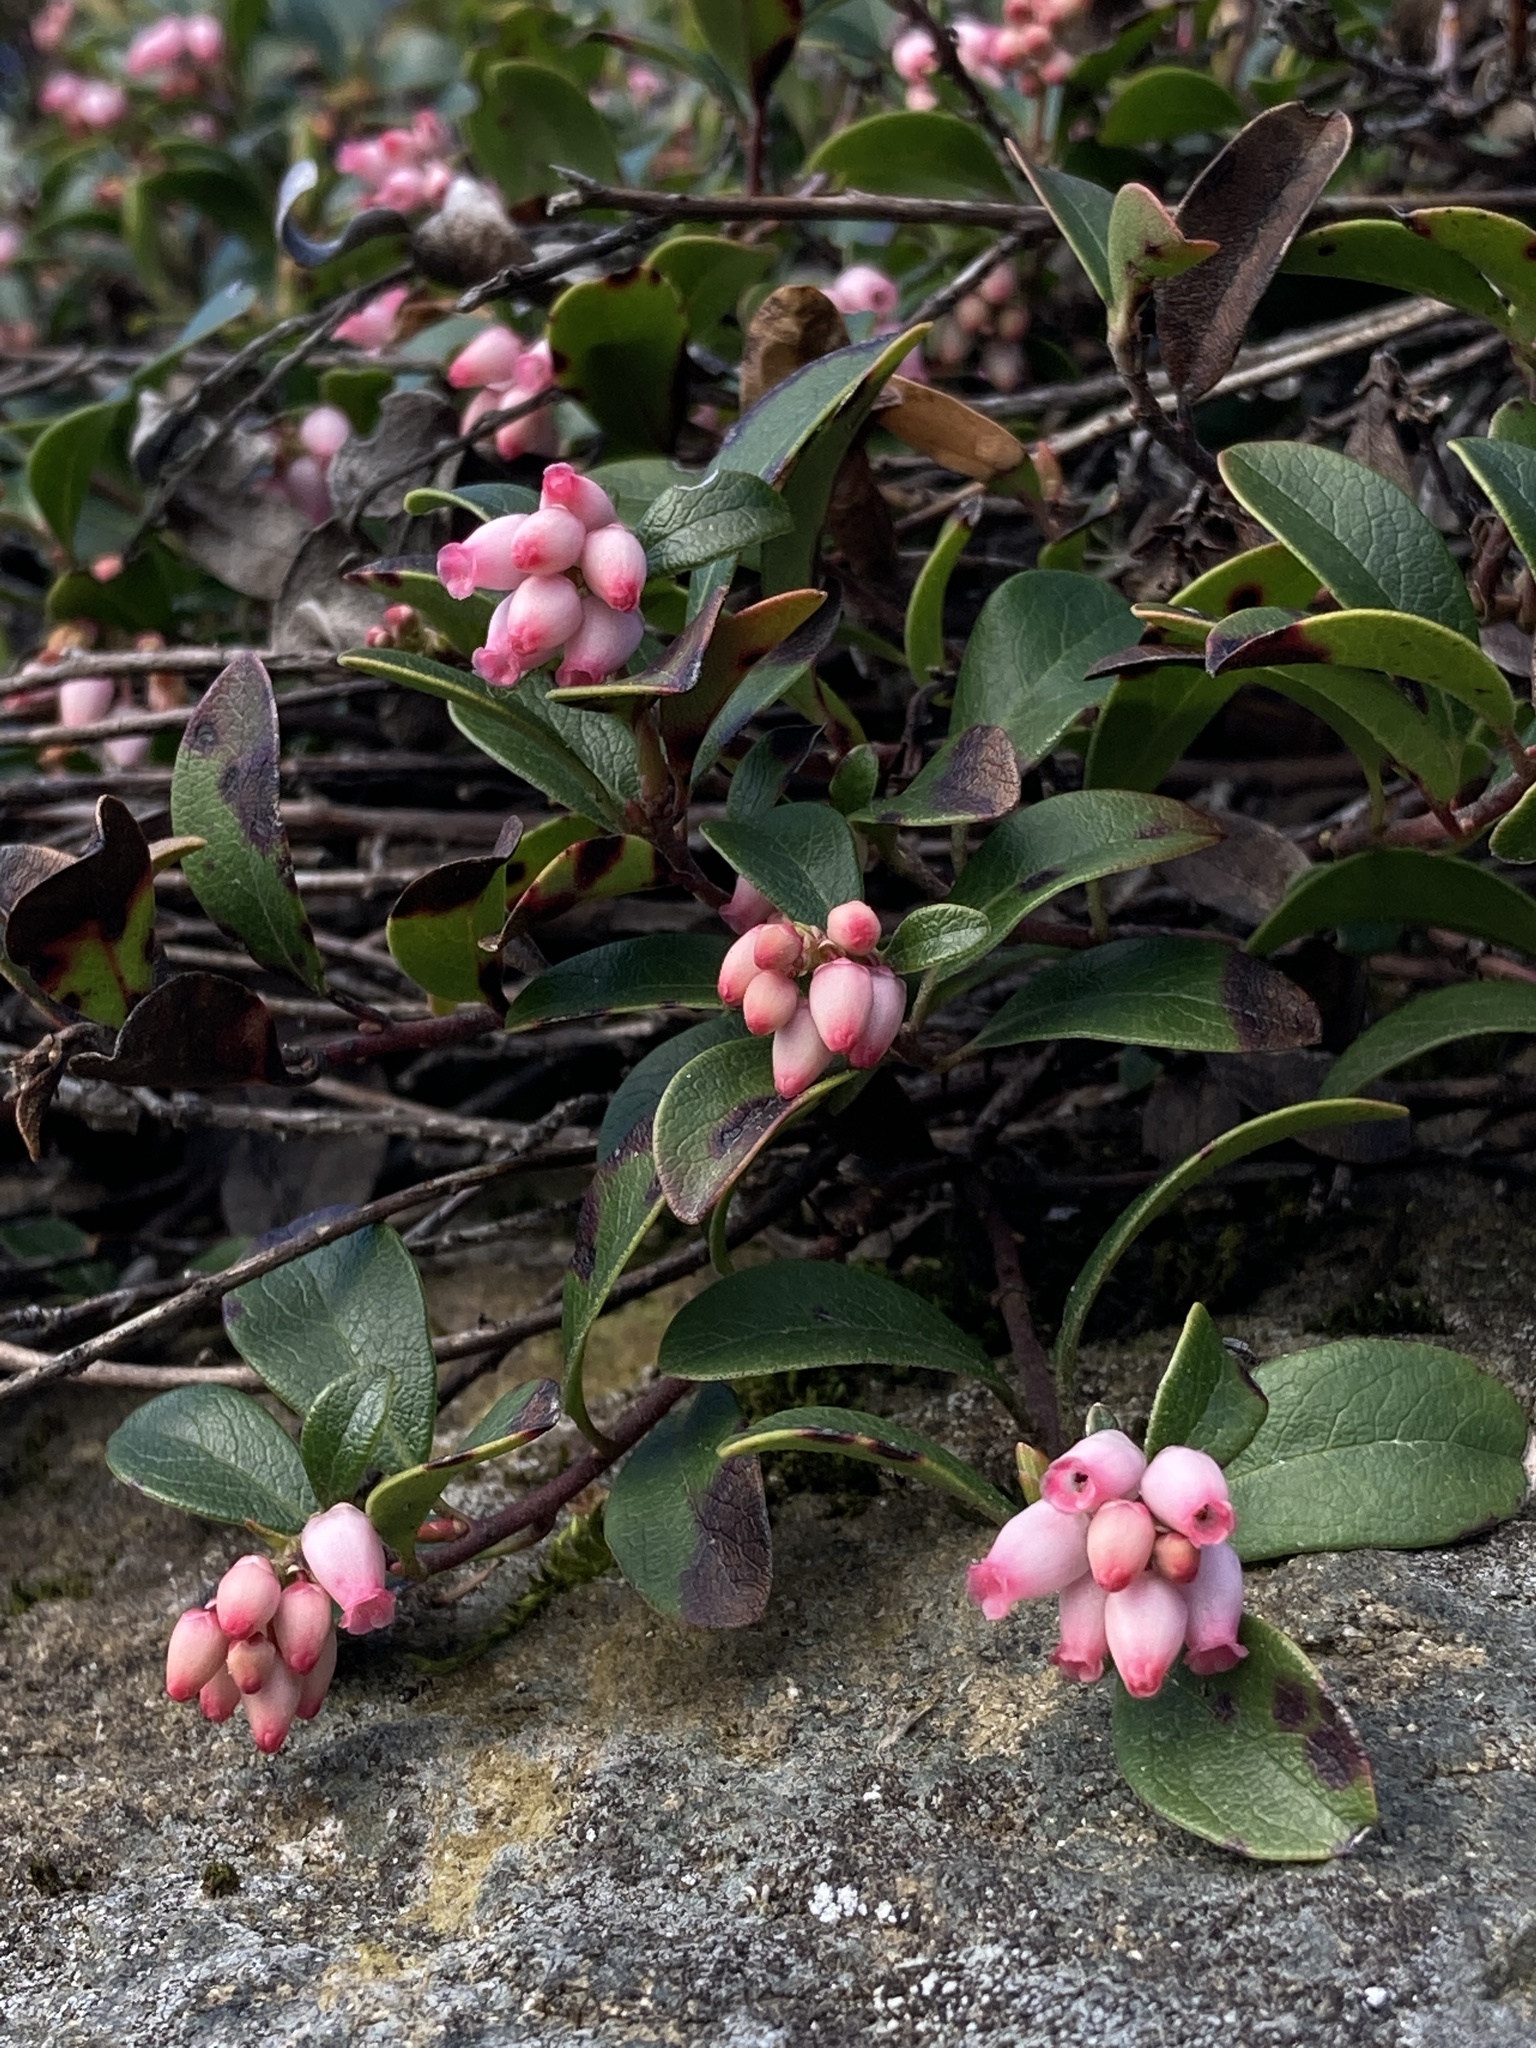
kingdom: Plantae
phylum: Tracheophyta
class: Magnoliopsida
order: Ericales
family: Ericaceae
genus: Arctostaphylos
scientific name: Arctostaphylos uva-ursi
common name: Bearberry
